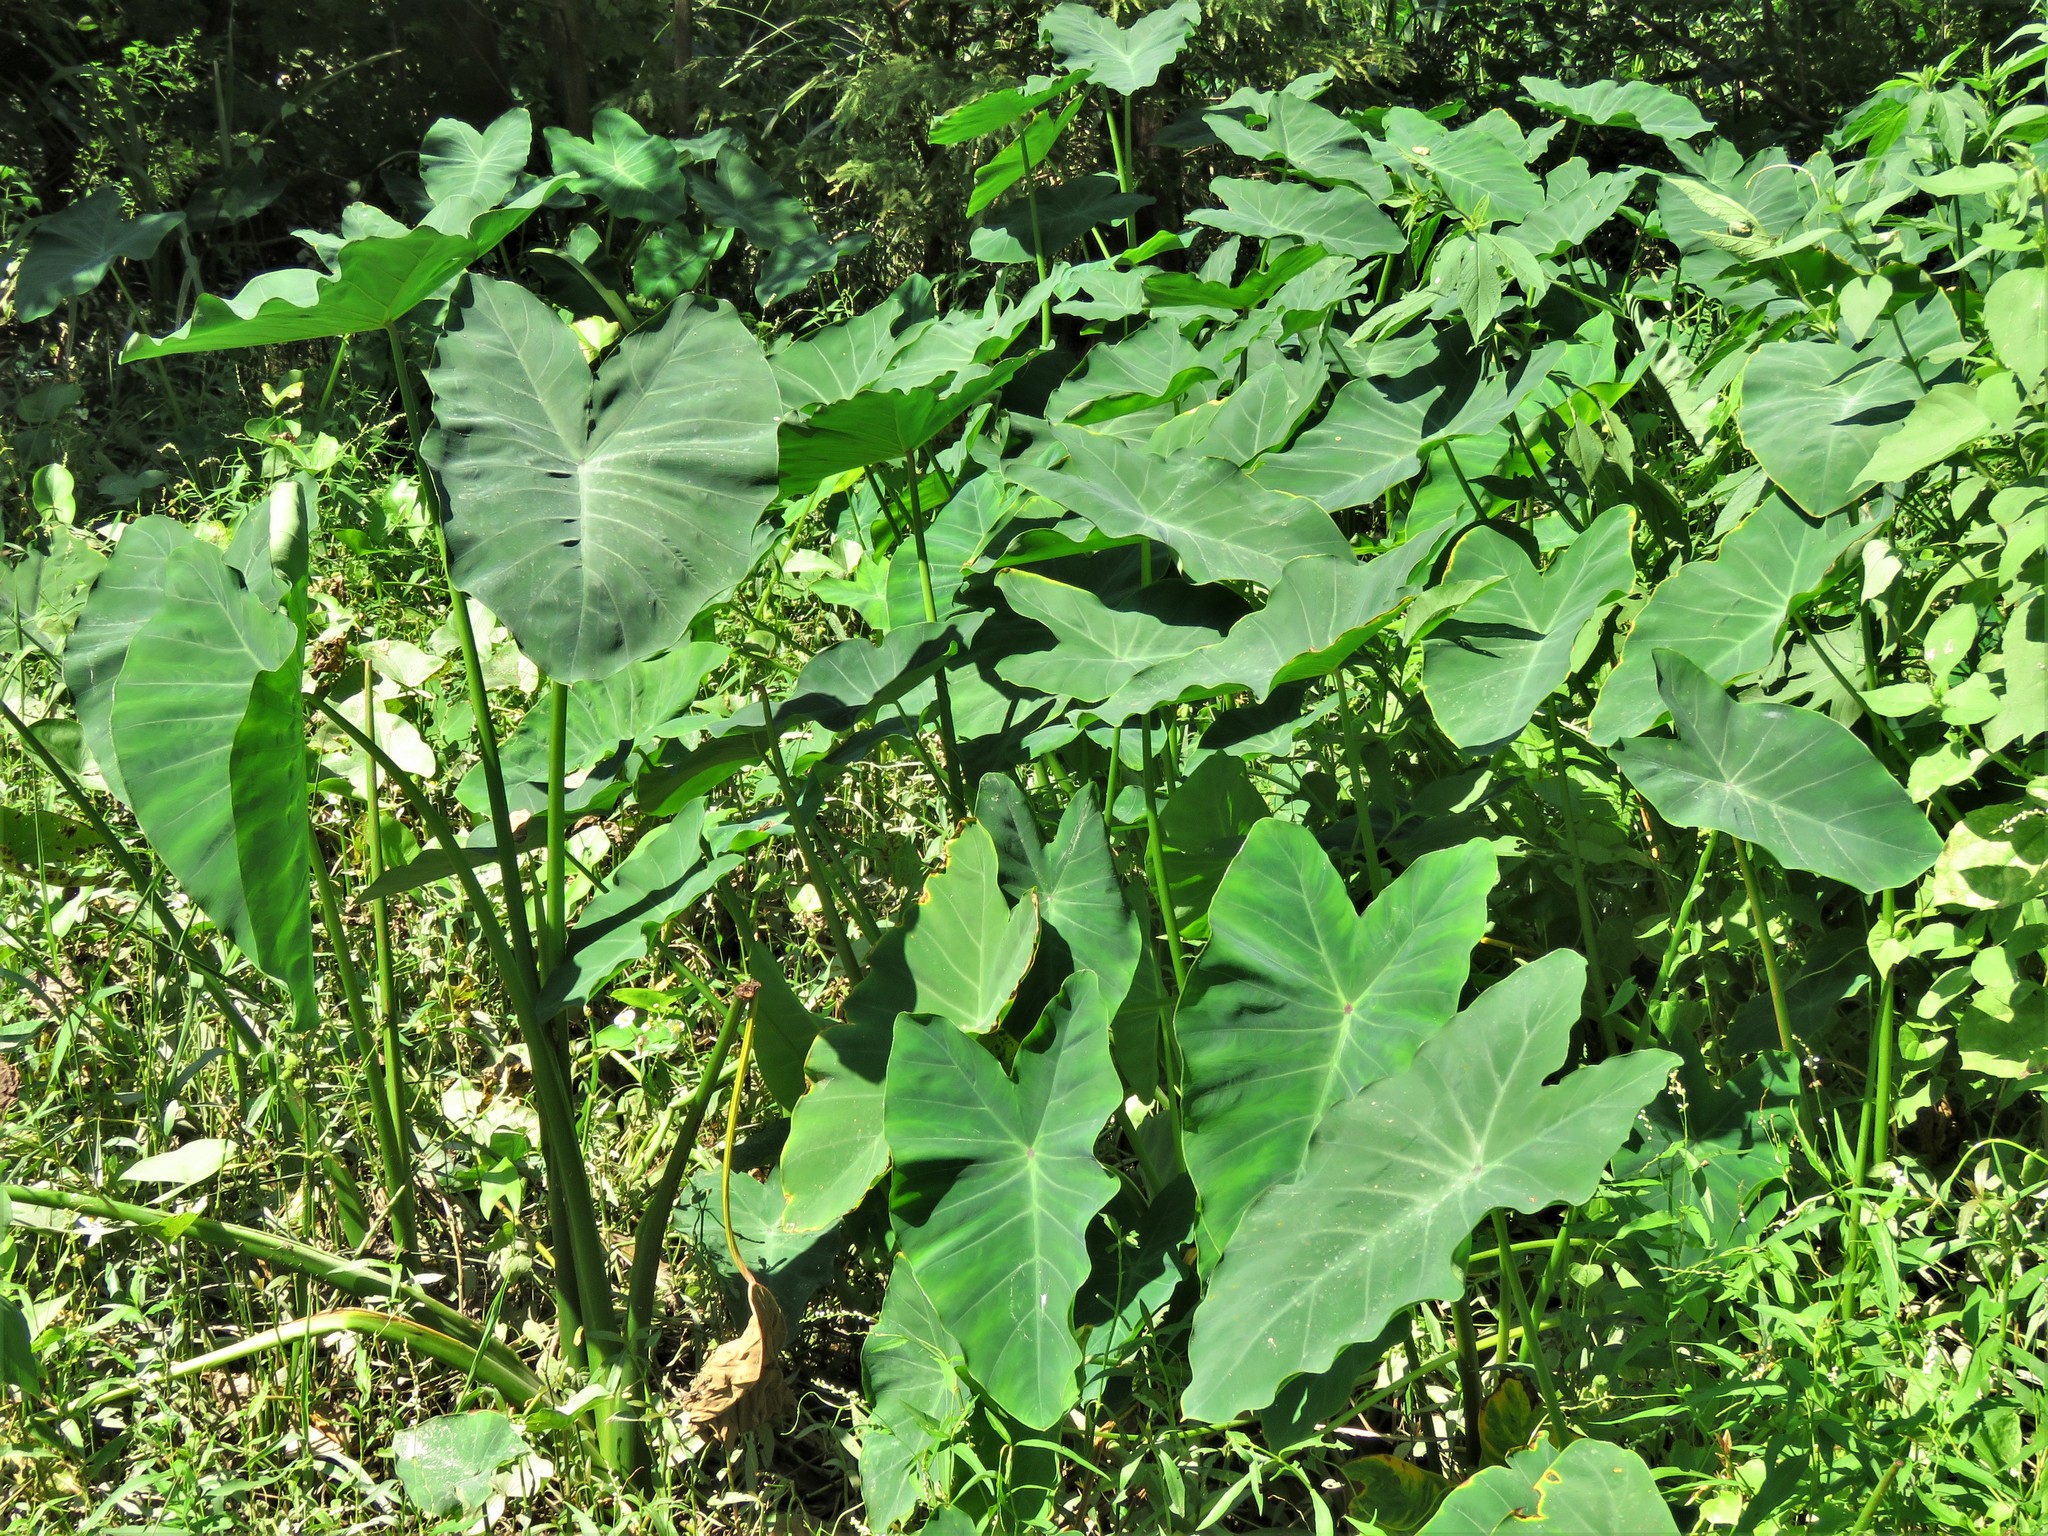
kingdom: Plantae
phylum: Tracheophyta
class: Liliopsida
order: Alismatales
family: Araceae
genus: Colocasia
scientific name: Colocasia esculenta
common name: Taro
